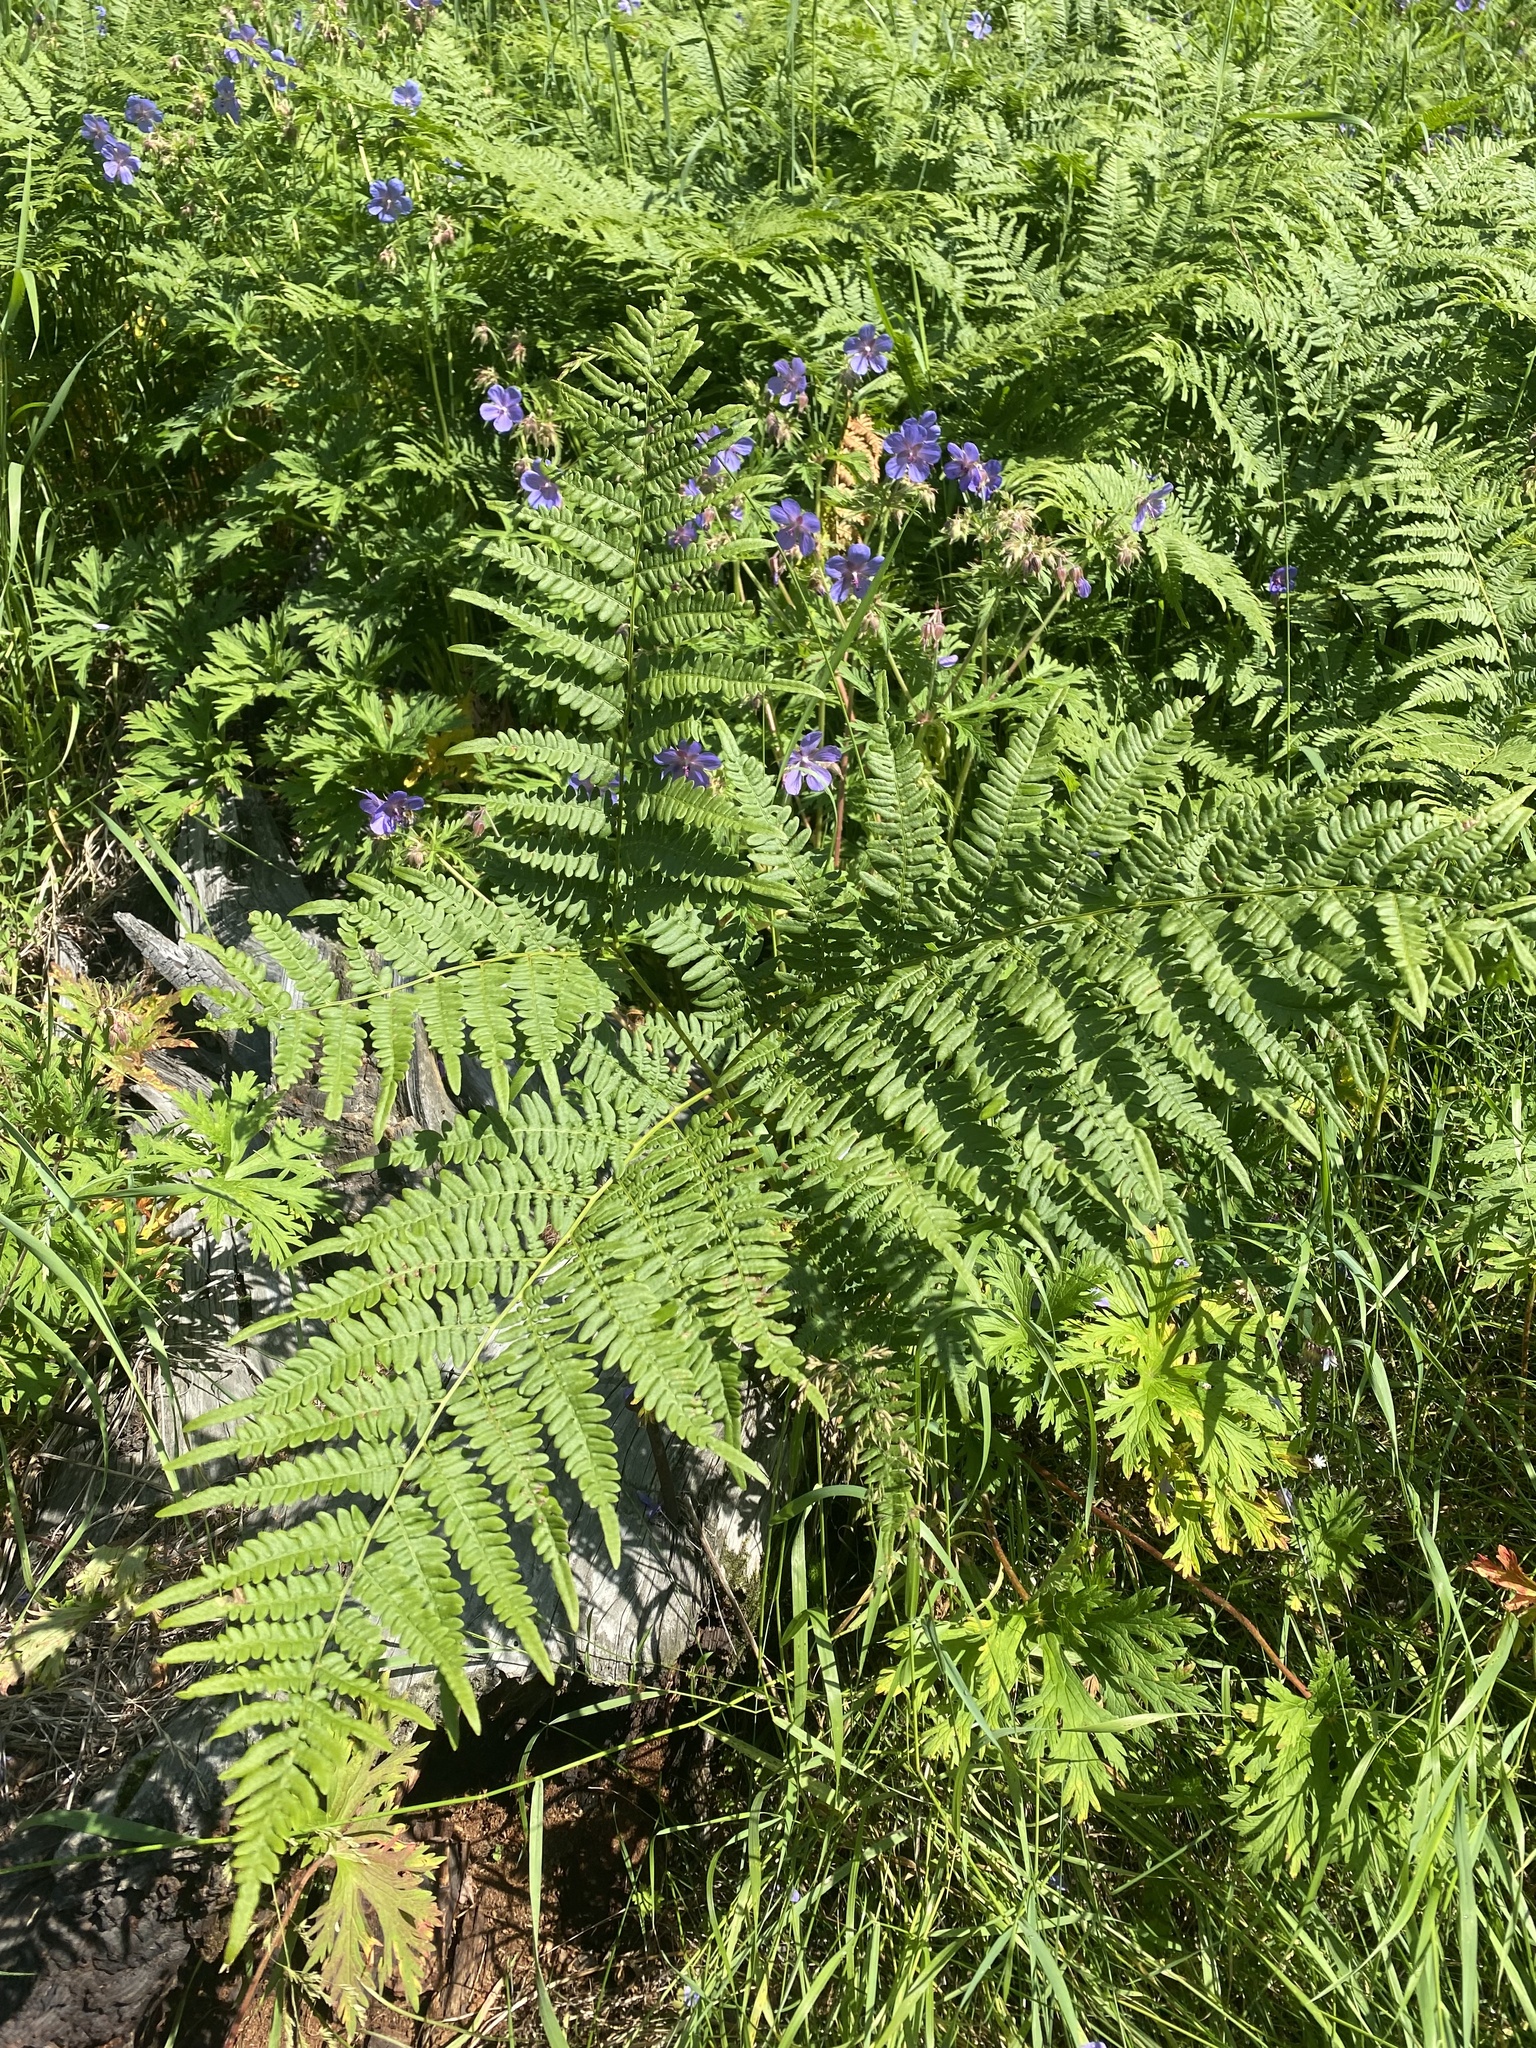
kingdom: Plantae
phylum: Tracheophyta
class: Polypodiopsida
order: Polypodiales
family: Dennstaedtiaceae
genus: Pteridium
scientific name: Pteridium aquilinum
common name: Bracken
